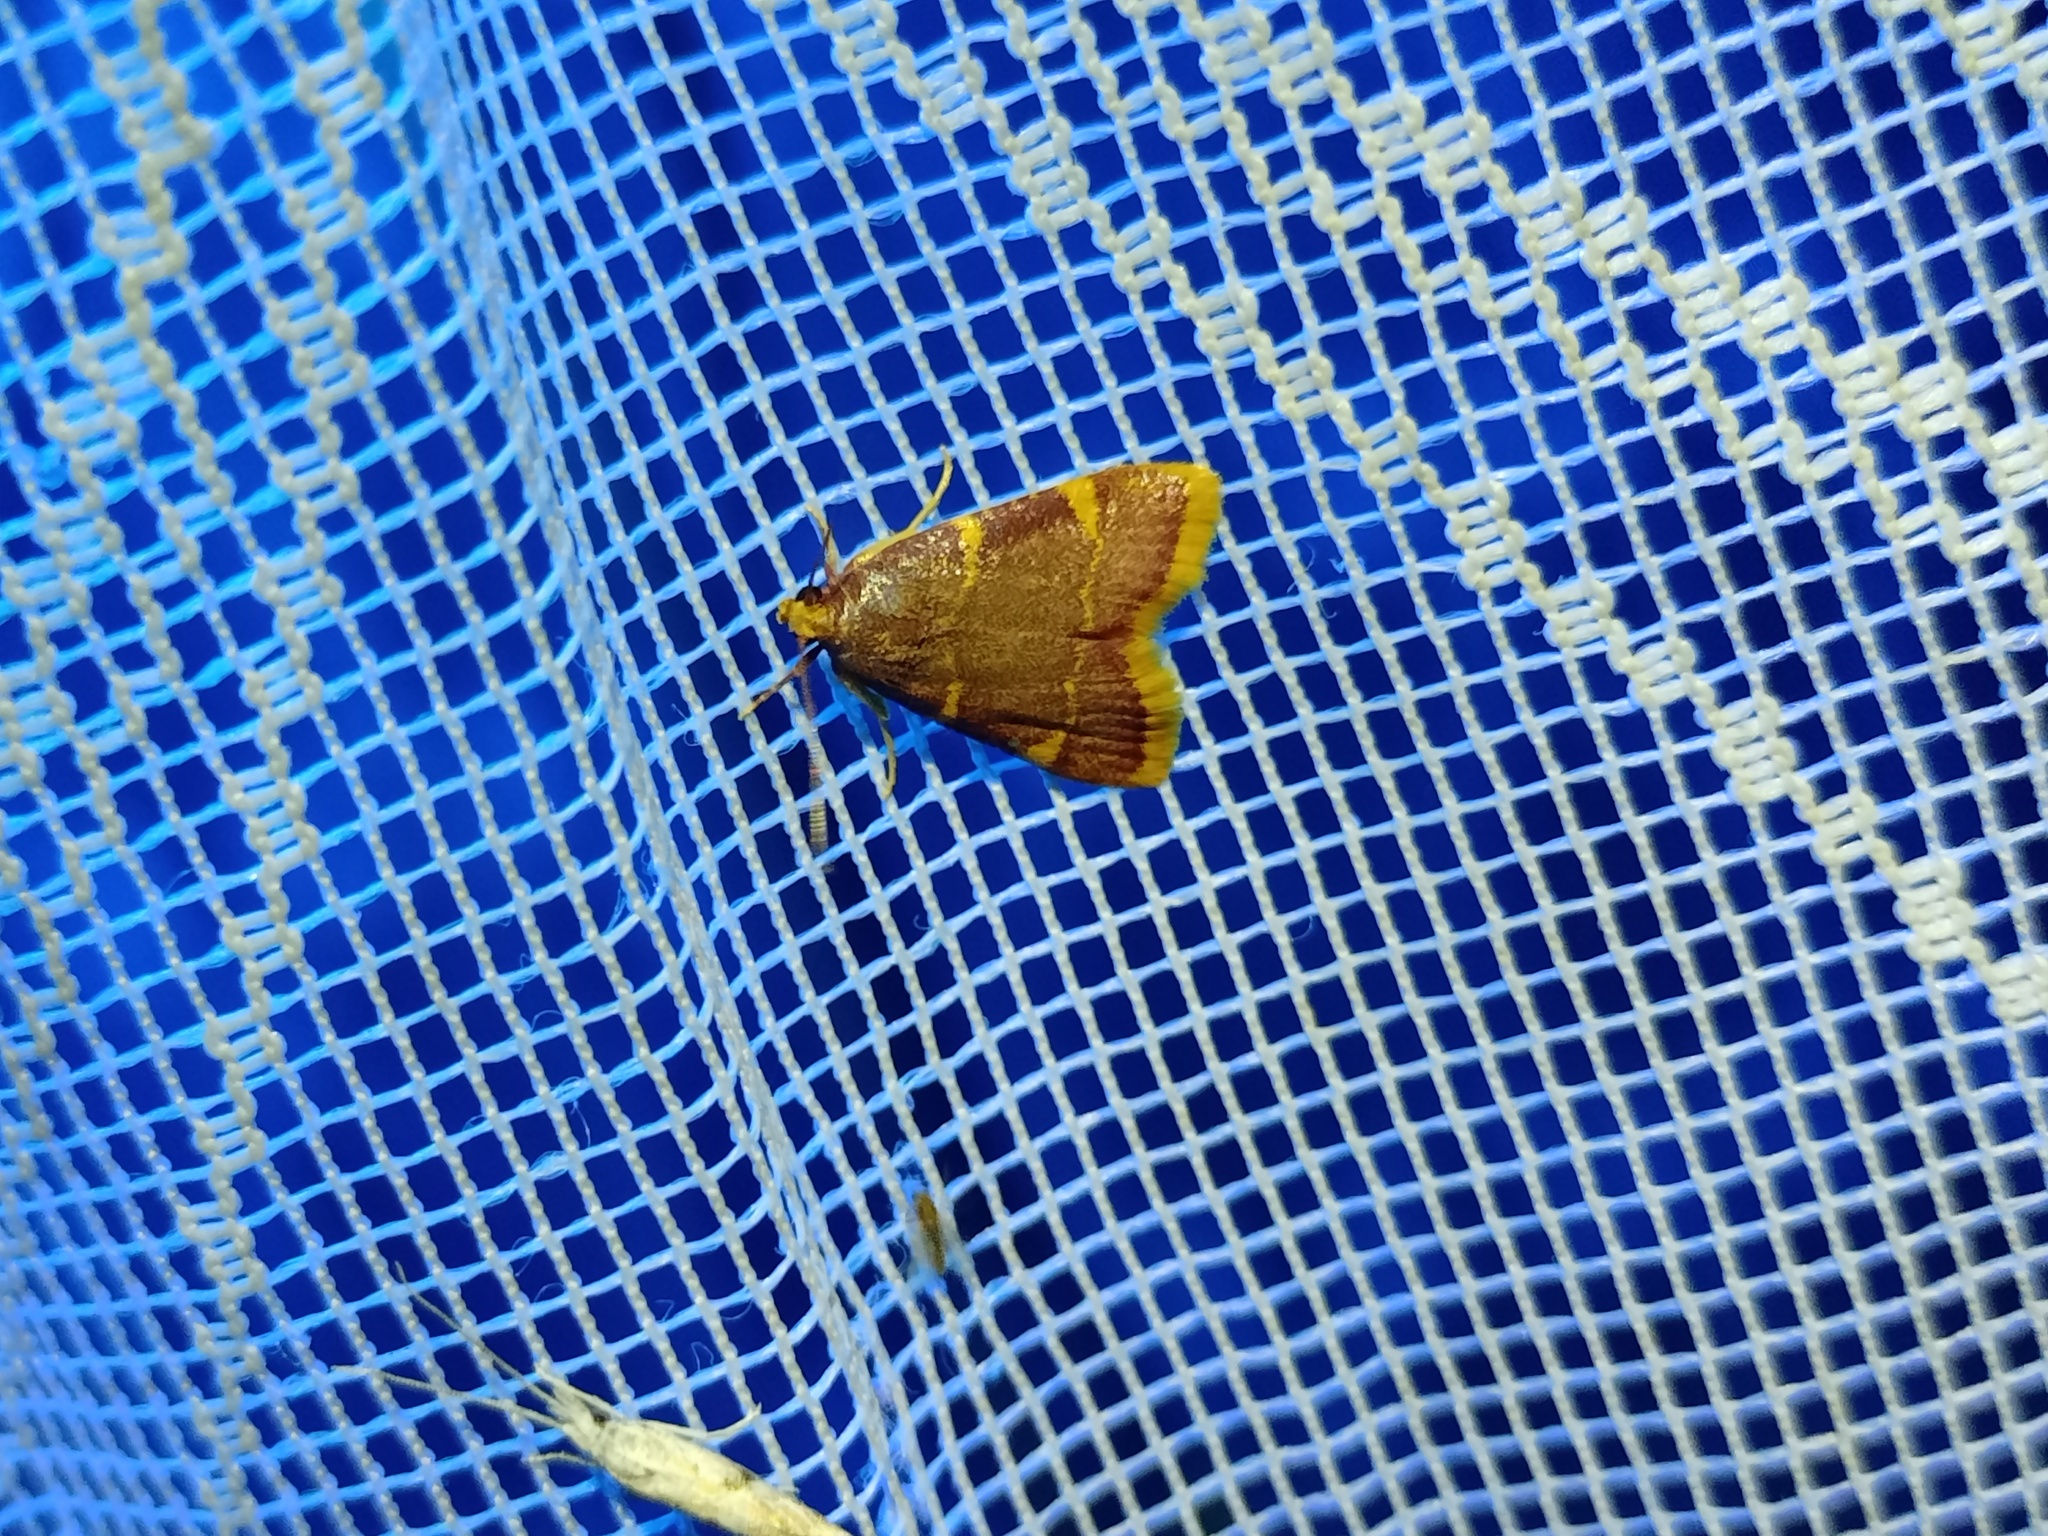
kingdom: Animalia
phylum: Arthropoda
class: Insecta
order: Lepidoptera
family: Pyralidae
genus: Hypsopygia
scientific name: Hypsopygia costalis
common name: Gold triangle
